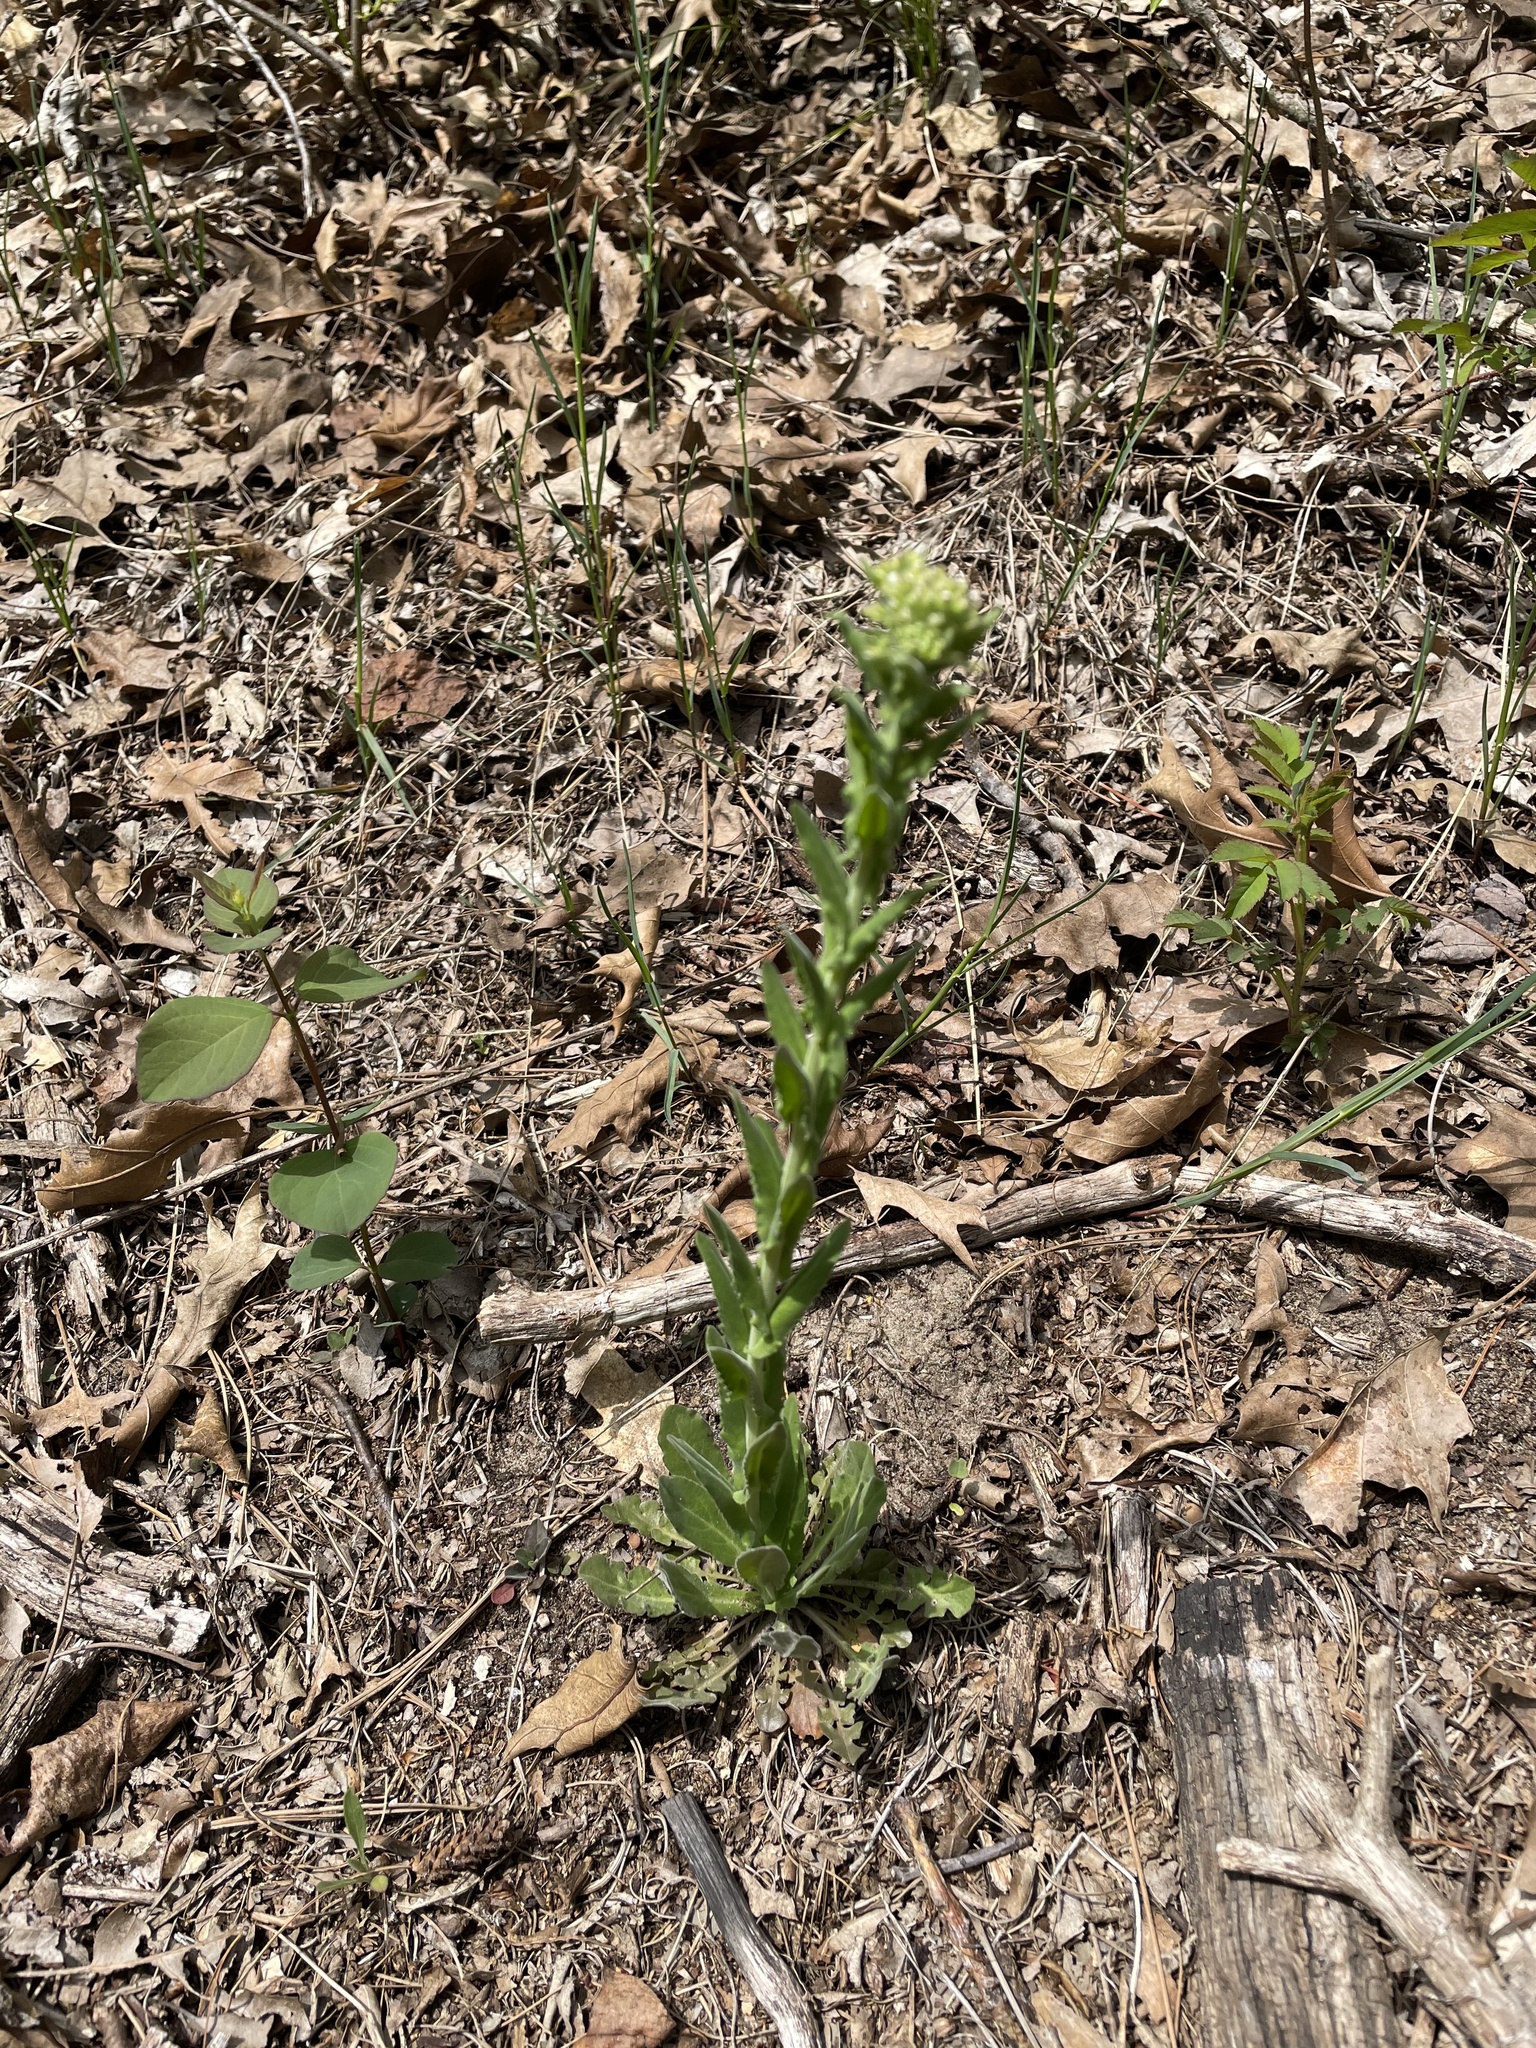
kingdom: Plantae
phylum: Tracheophyta
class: Magnoliopsida
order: Brassicales
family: Brassicaceae
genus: Lepidium
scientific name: Lepidium campestre
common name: Field pepperwort
